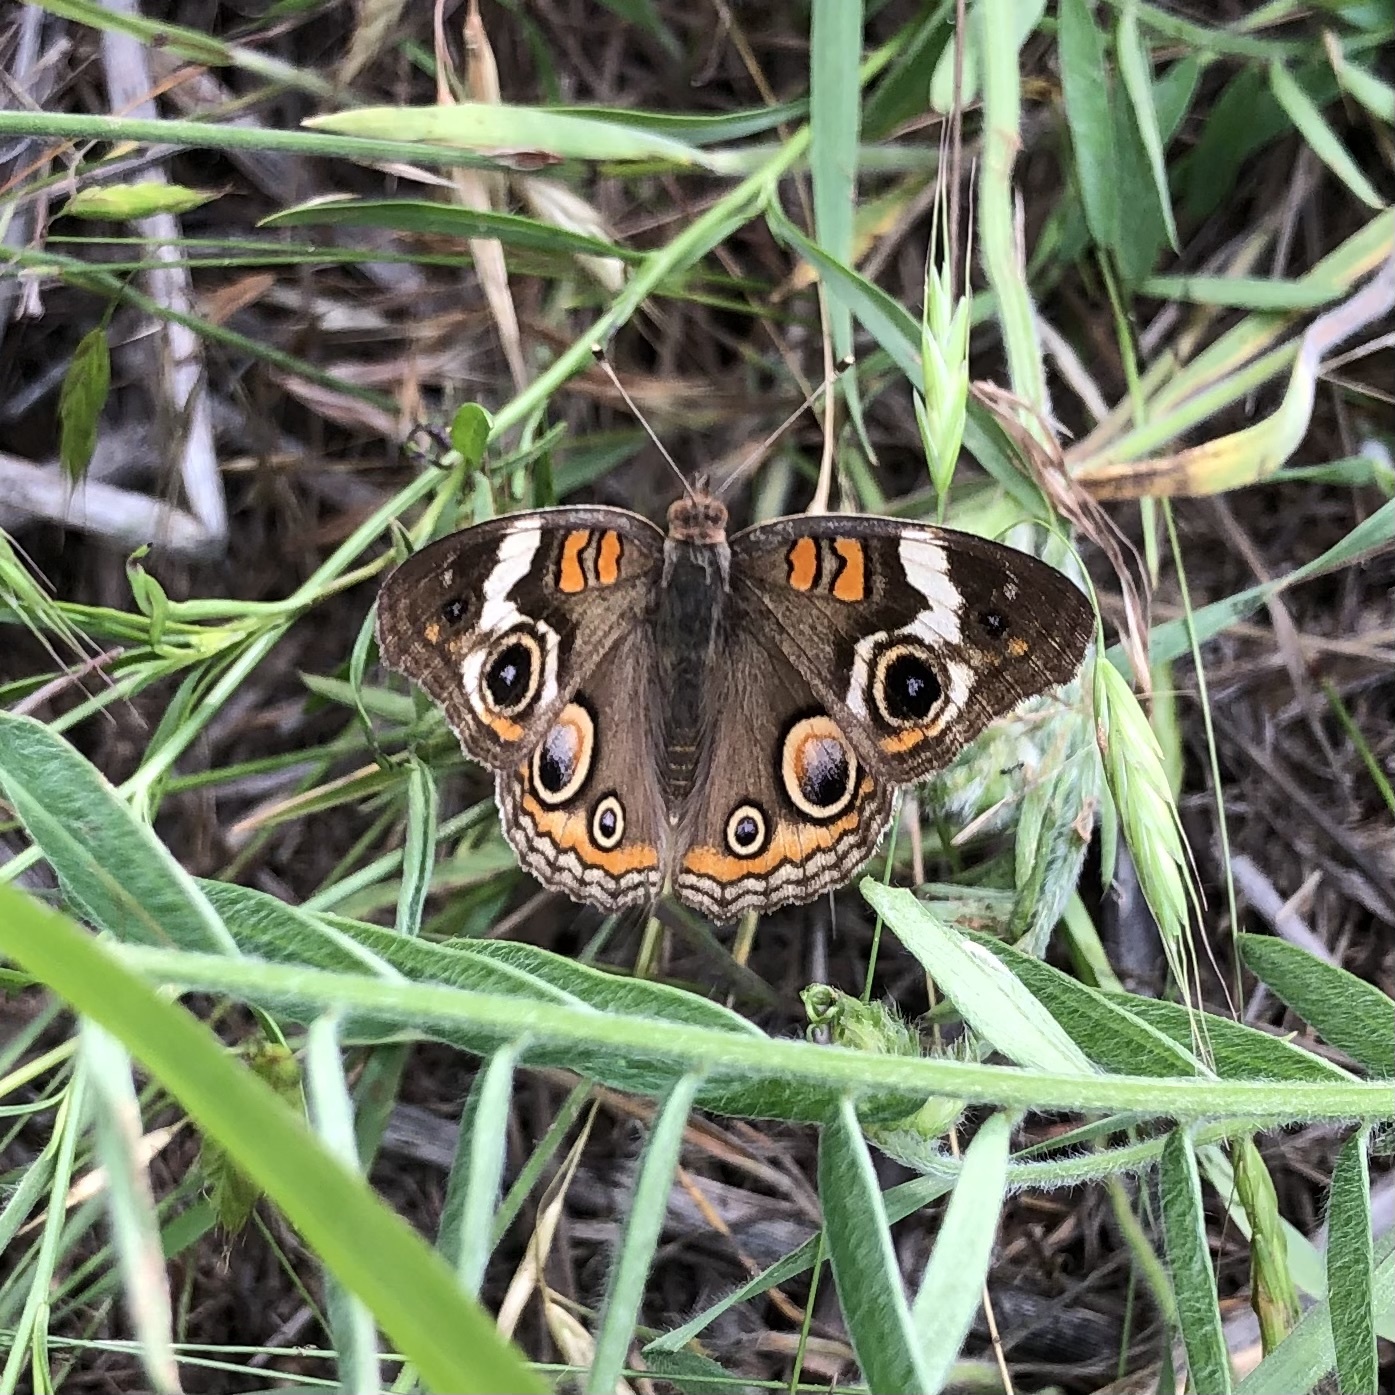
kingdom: Animalia
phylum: Arthropoda
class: Insecta
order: Lepidoptera
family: Nymphalidae
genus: Junonia
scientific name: Junonia coenia
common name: Common buckeye
